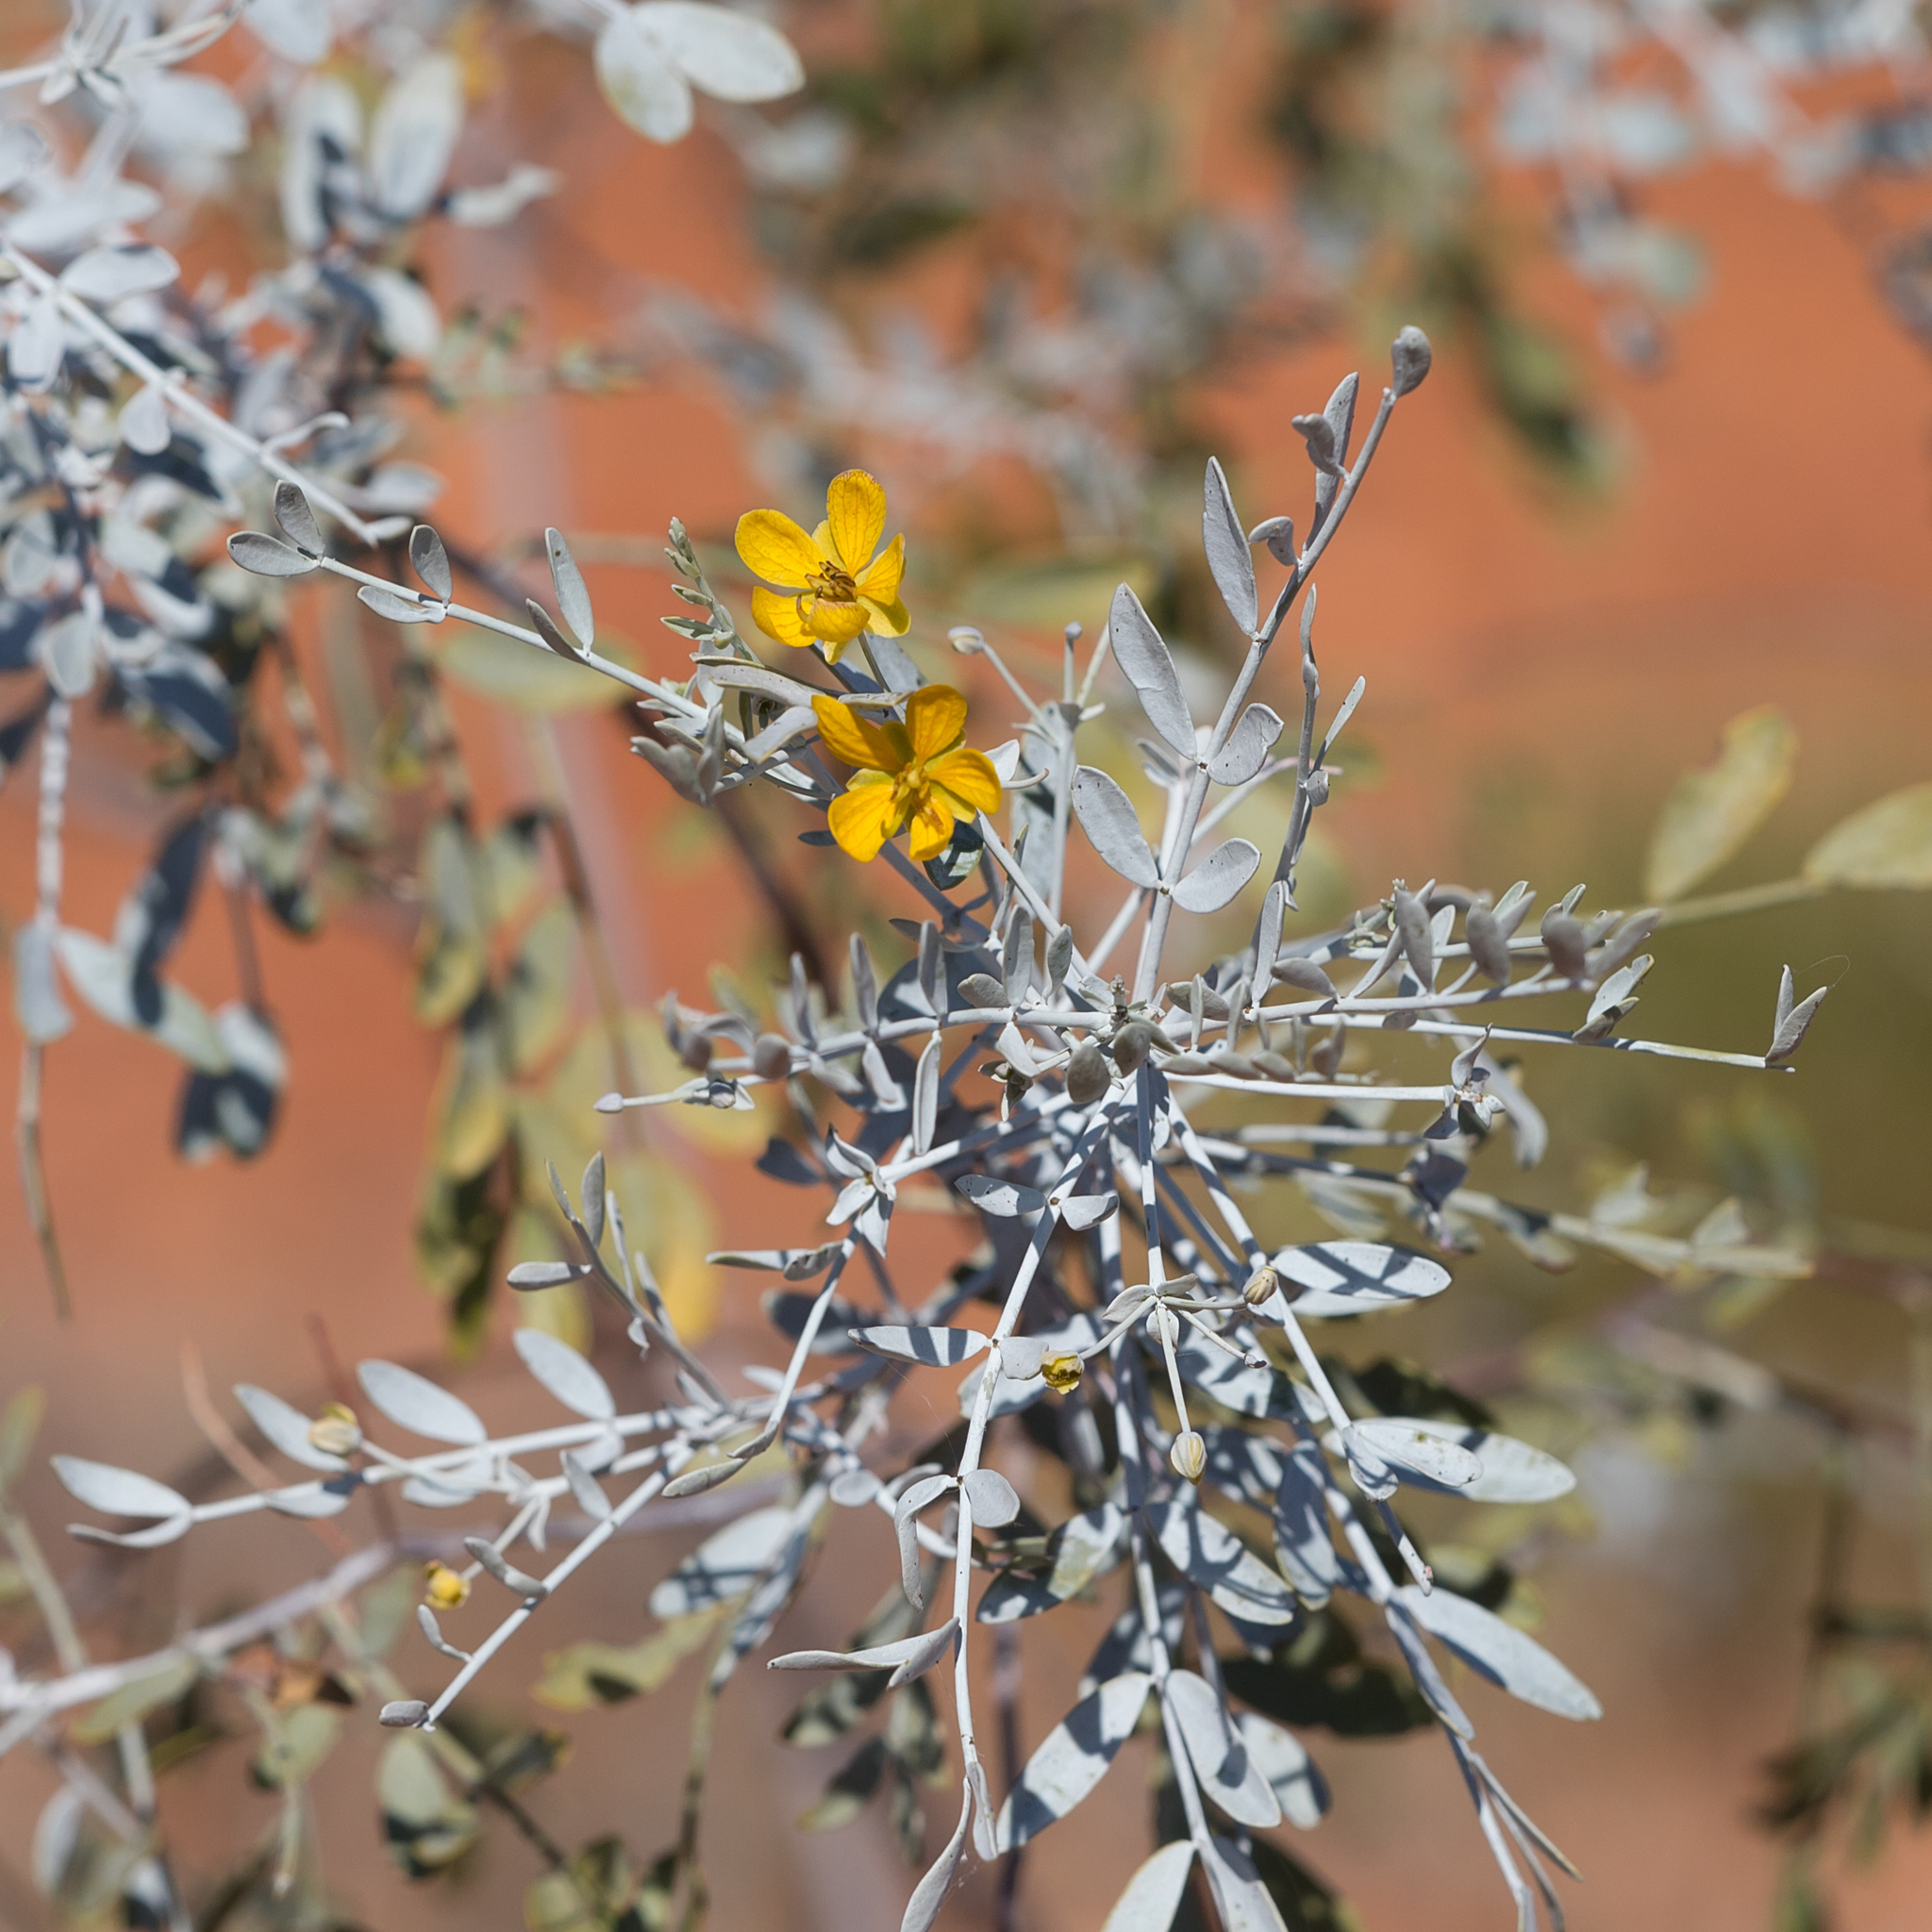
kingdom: Plantae
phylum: Tracheophyta
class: Magnoliopsida
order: Fabales
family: Fabaceae
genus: Senna
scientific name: Senna glutinosa
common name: Green acacia
